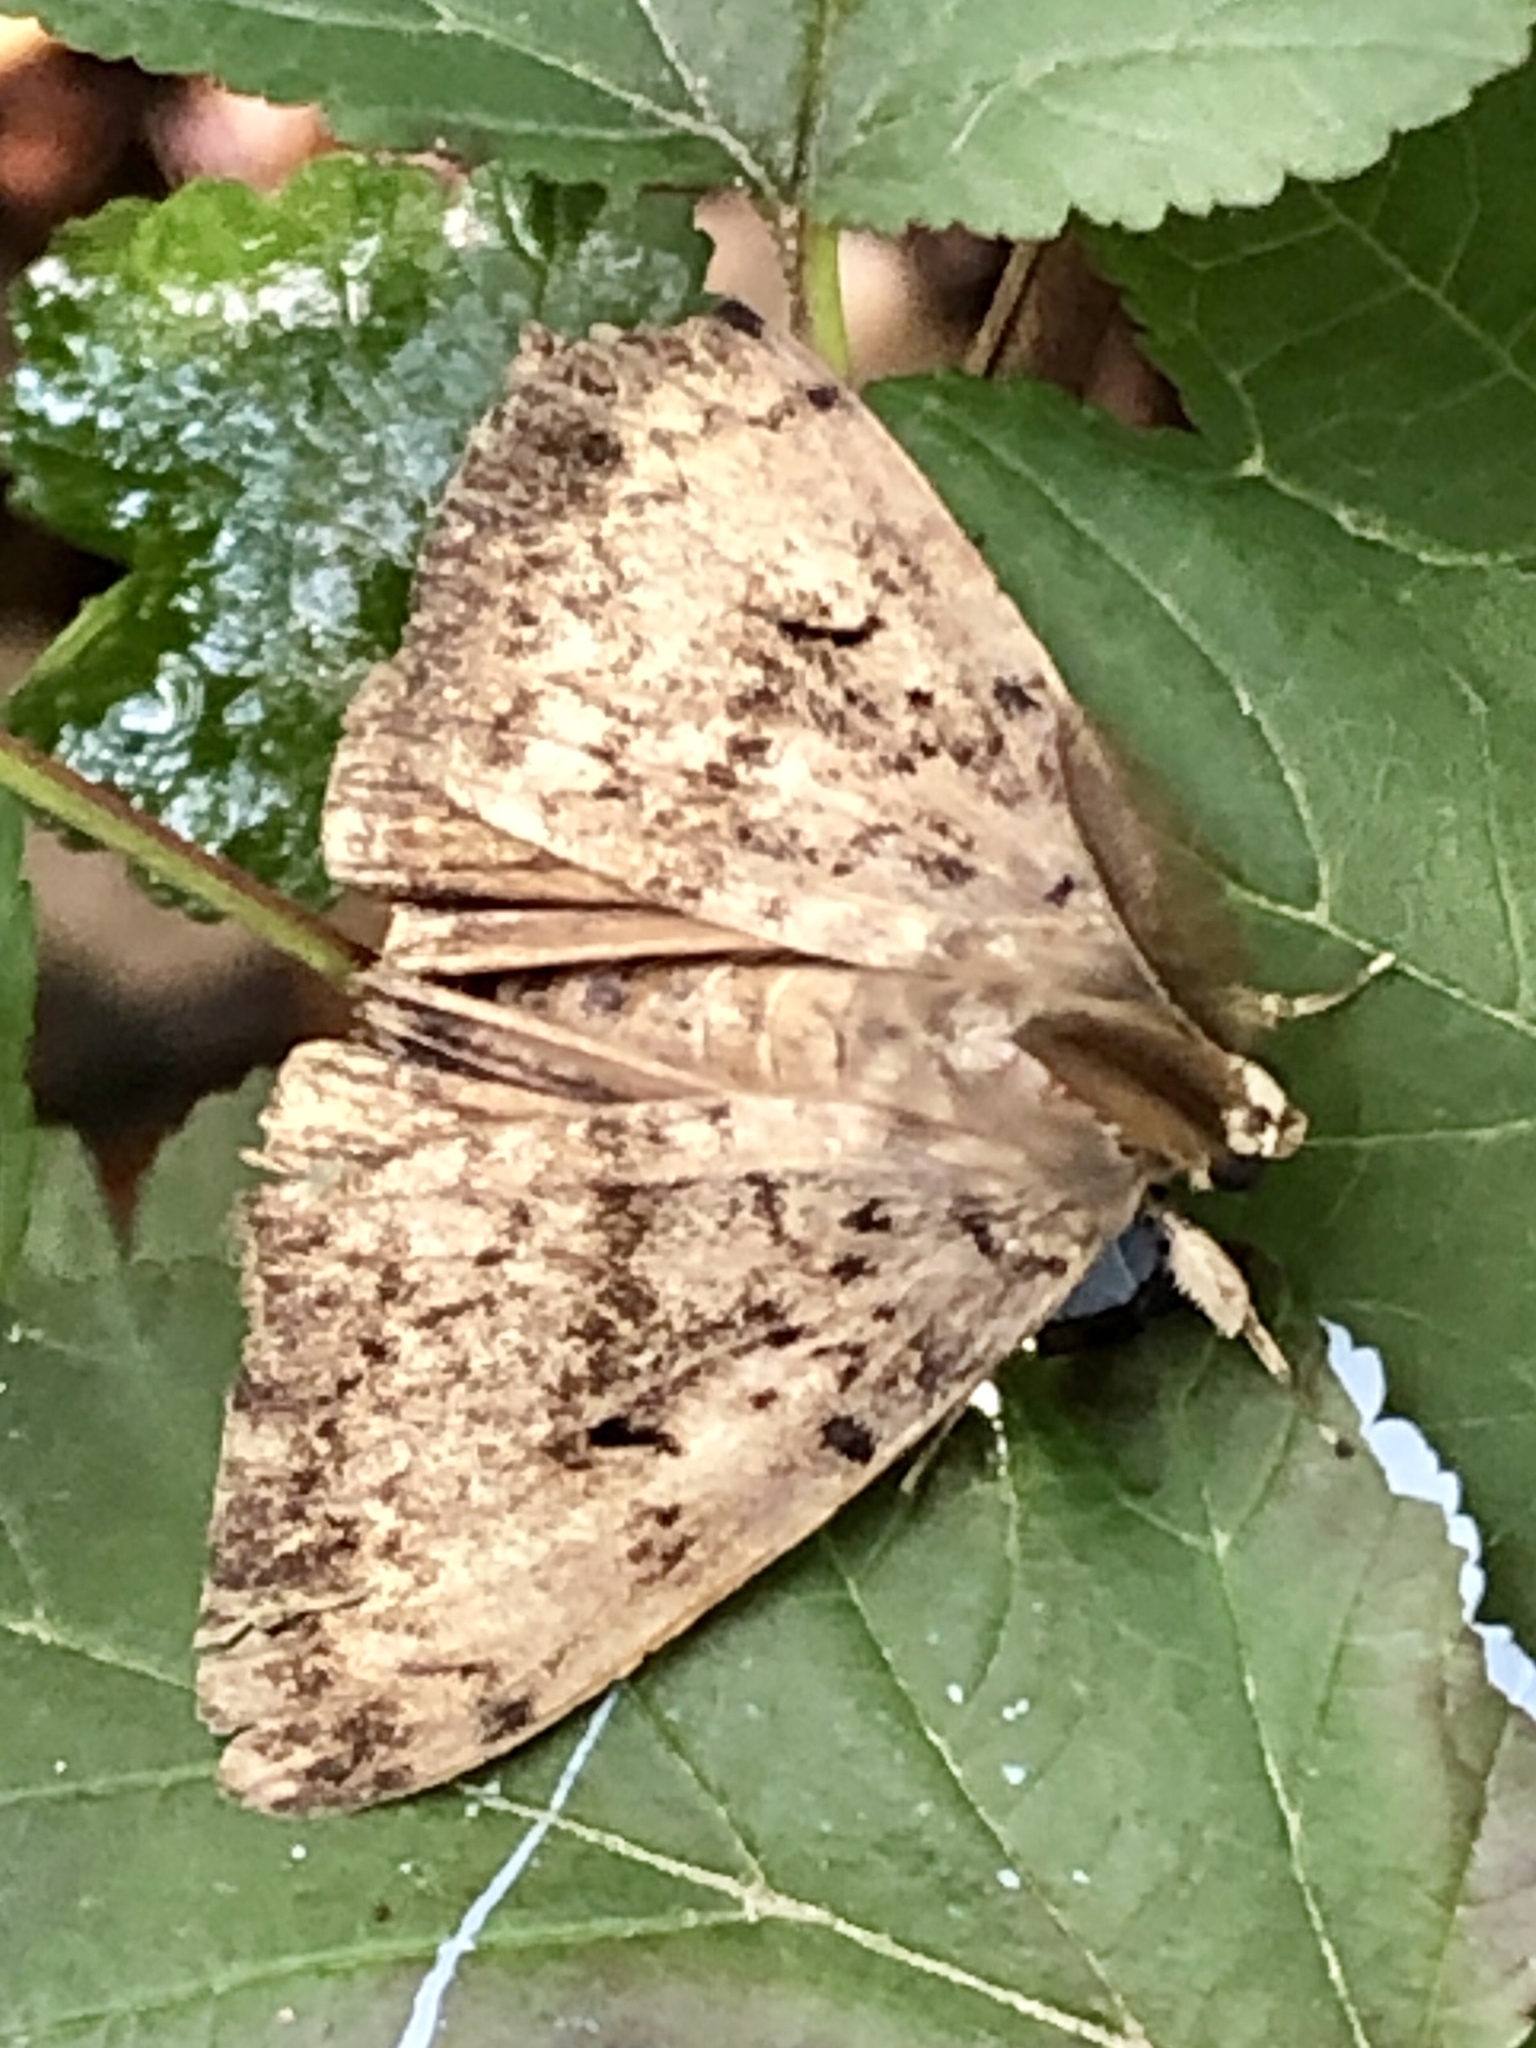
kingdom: Animalia
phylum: Arthropoda
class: Insecta
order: Lepidoptera
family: Erebidae
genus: Lymantria
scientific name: Lymantria dispar
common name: Gypsy moth
